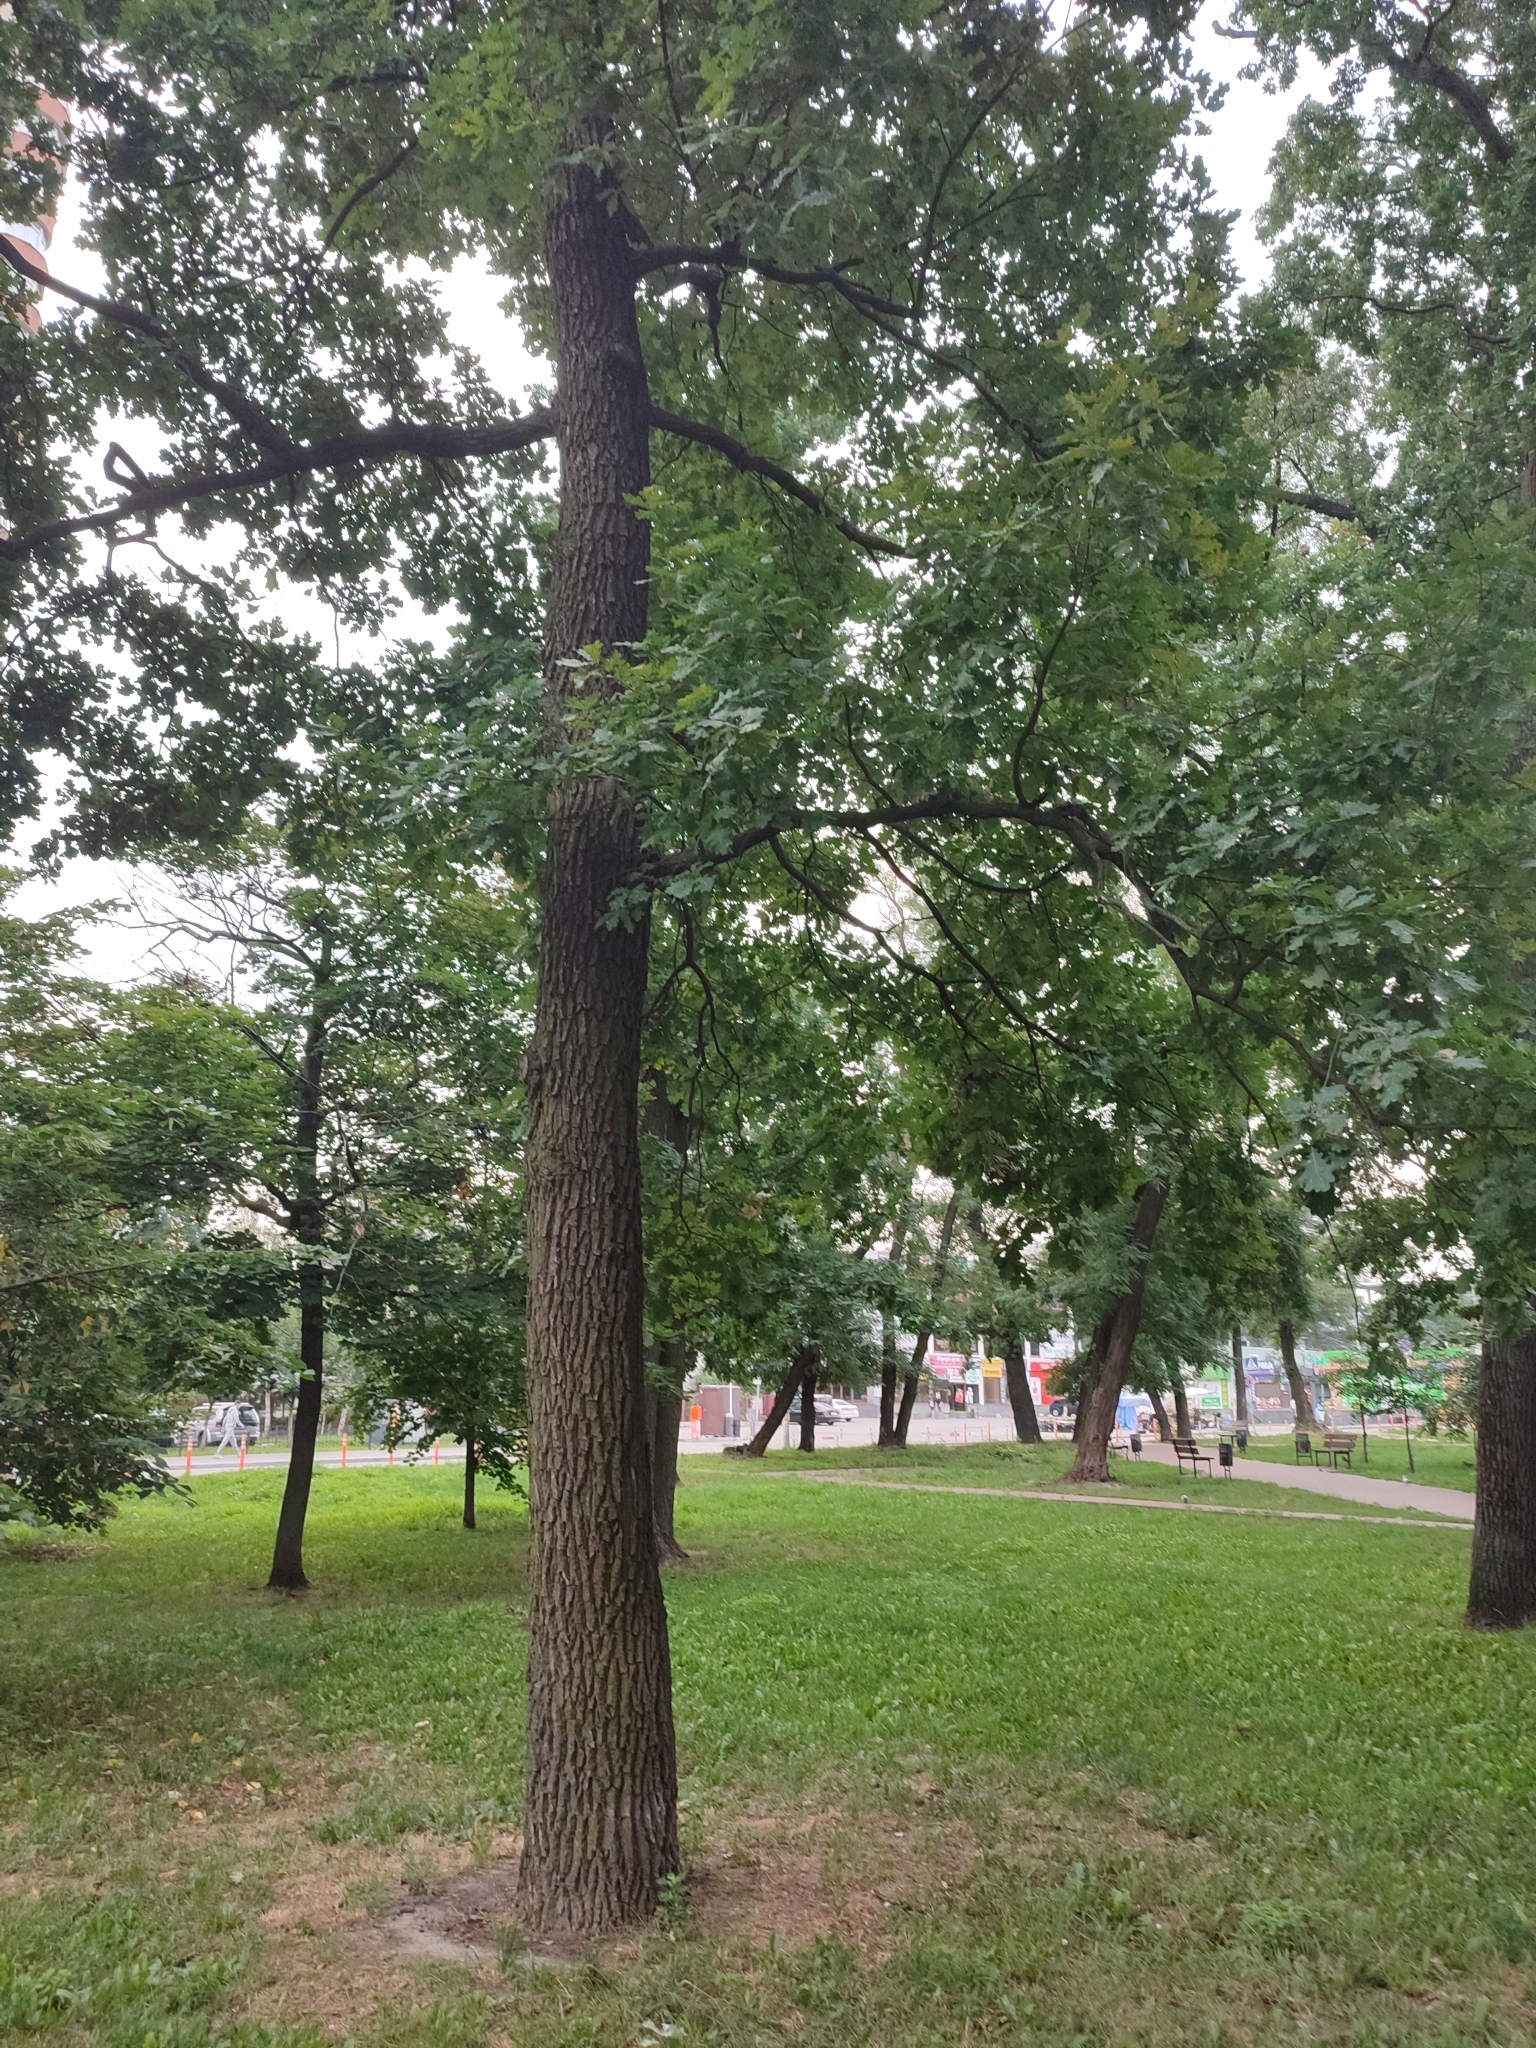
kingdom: Plantae
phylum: Tracheophyta
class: Magnoliopsida
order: Fagales
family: Fagaceae
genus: Quercus
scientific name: Quercus robur
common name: Pedunculate oak
